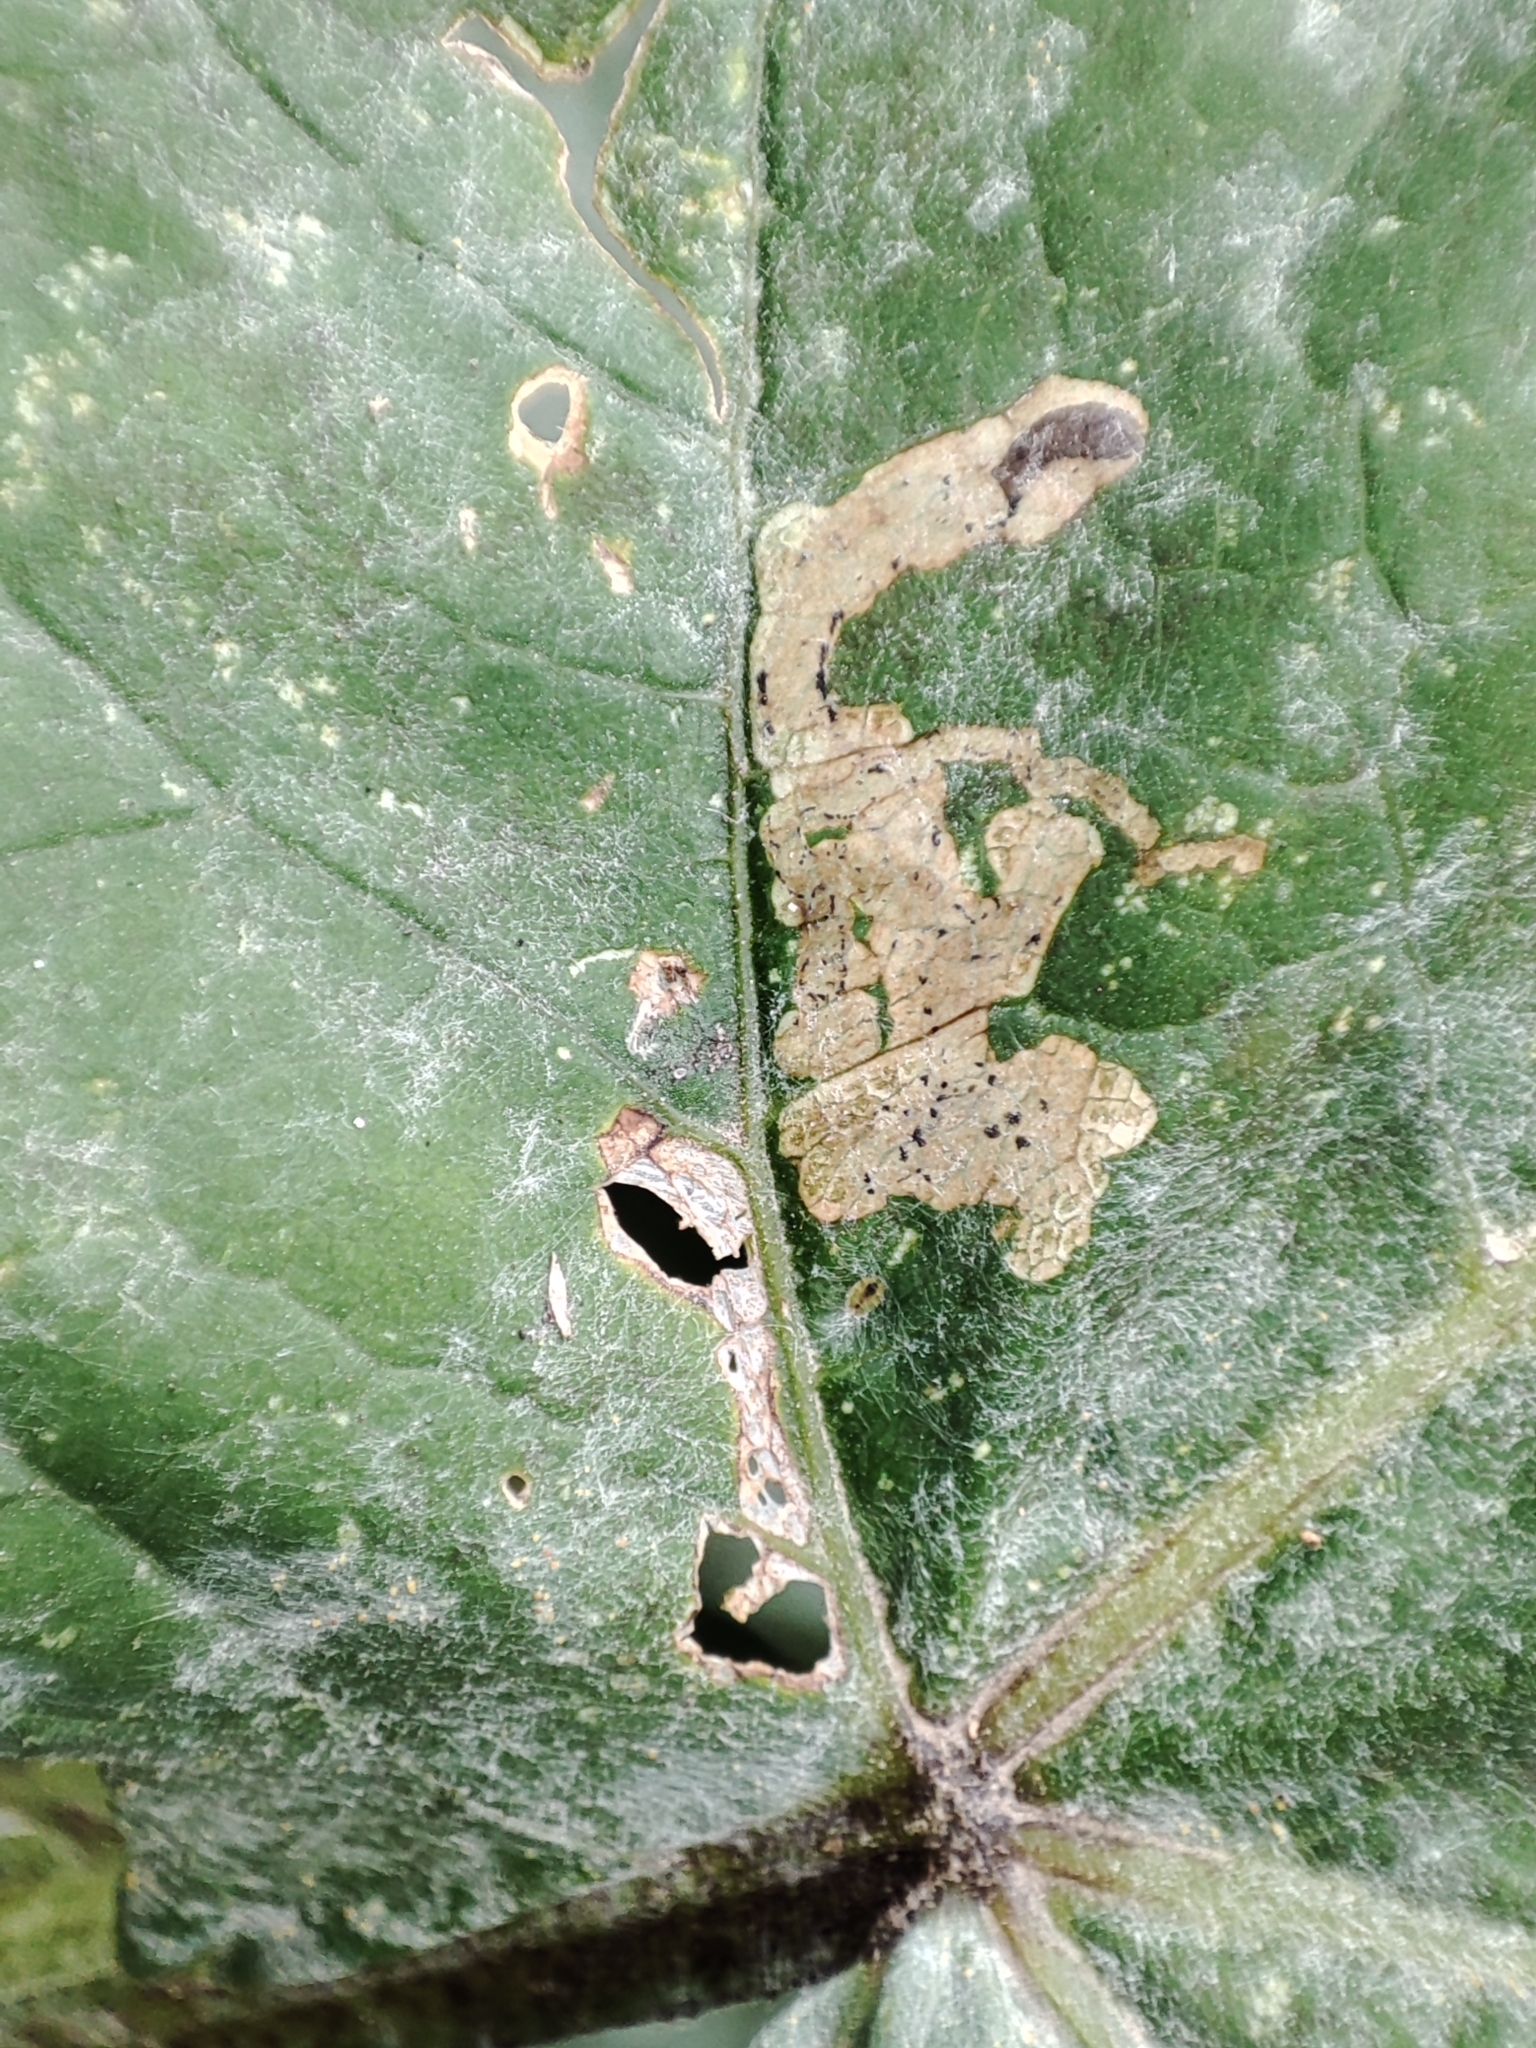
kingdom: Fungi
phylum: Ascomycota
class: Leotiomycetes
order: Helotiales
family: Erysiphaceae
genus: Erysiphe
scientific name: Erysiphe heraclei
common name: Umbellifer mildew
